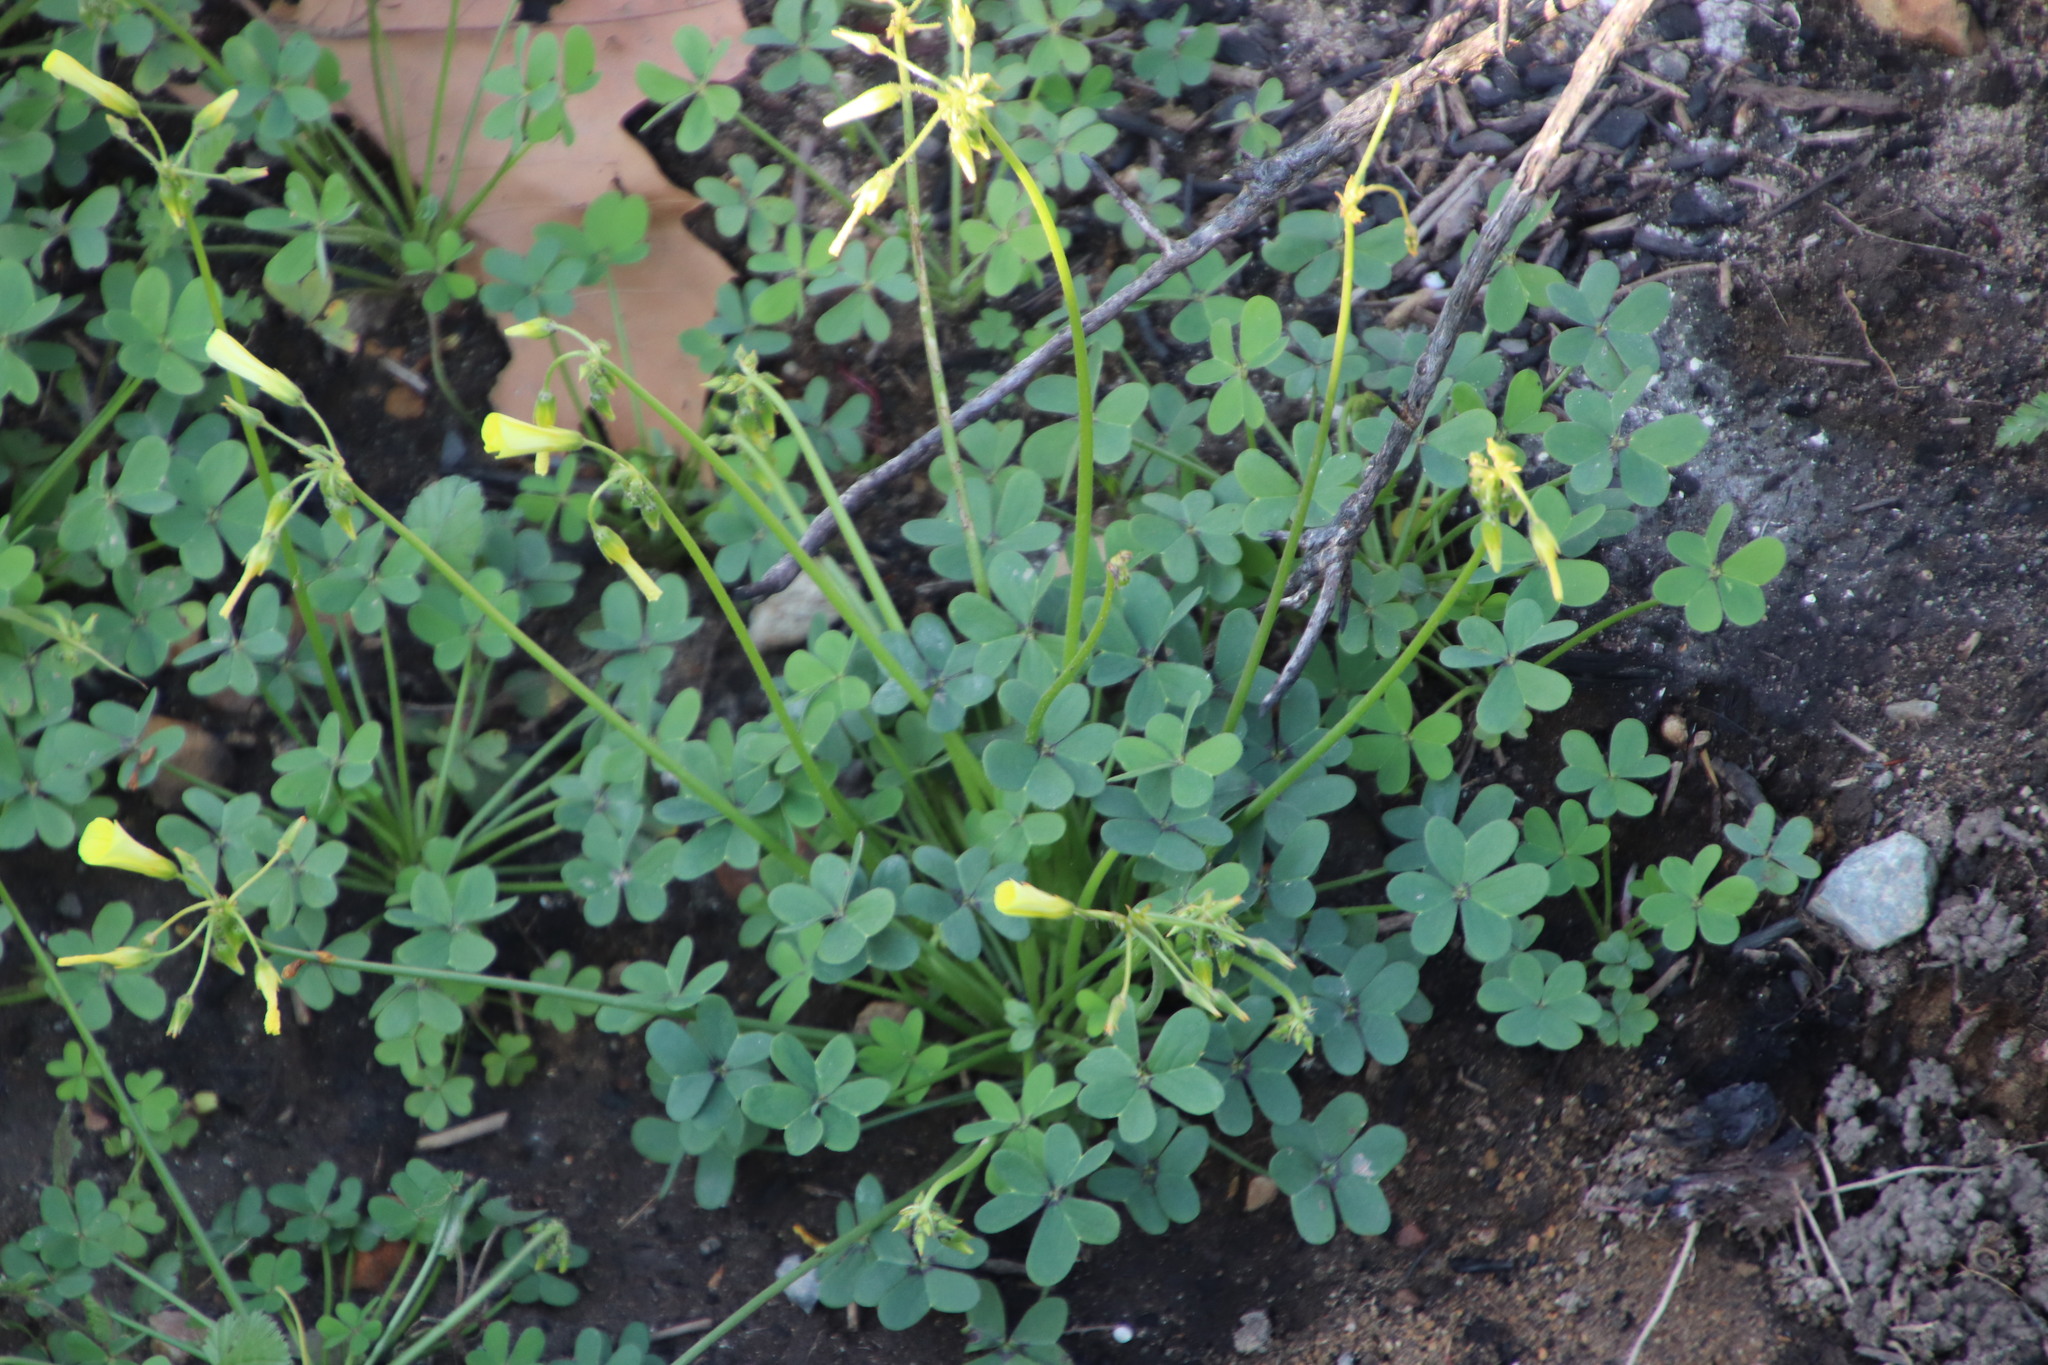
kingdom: Plantae
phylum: Tracheophyta
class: Magnoliopsida
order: Oxalidales
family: Oxalidaceae
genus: Oxalis
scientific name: Oxalis pes-caprae
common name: Bermuda-buttercup
